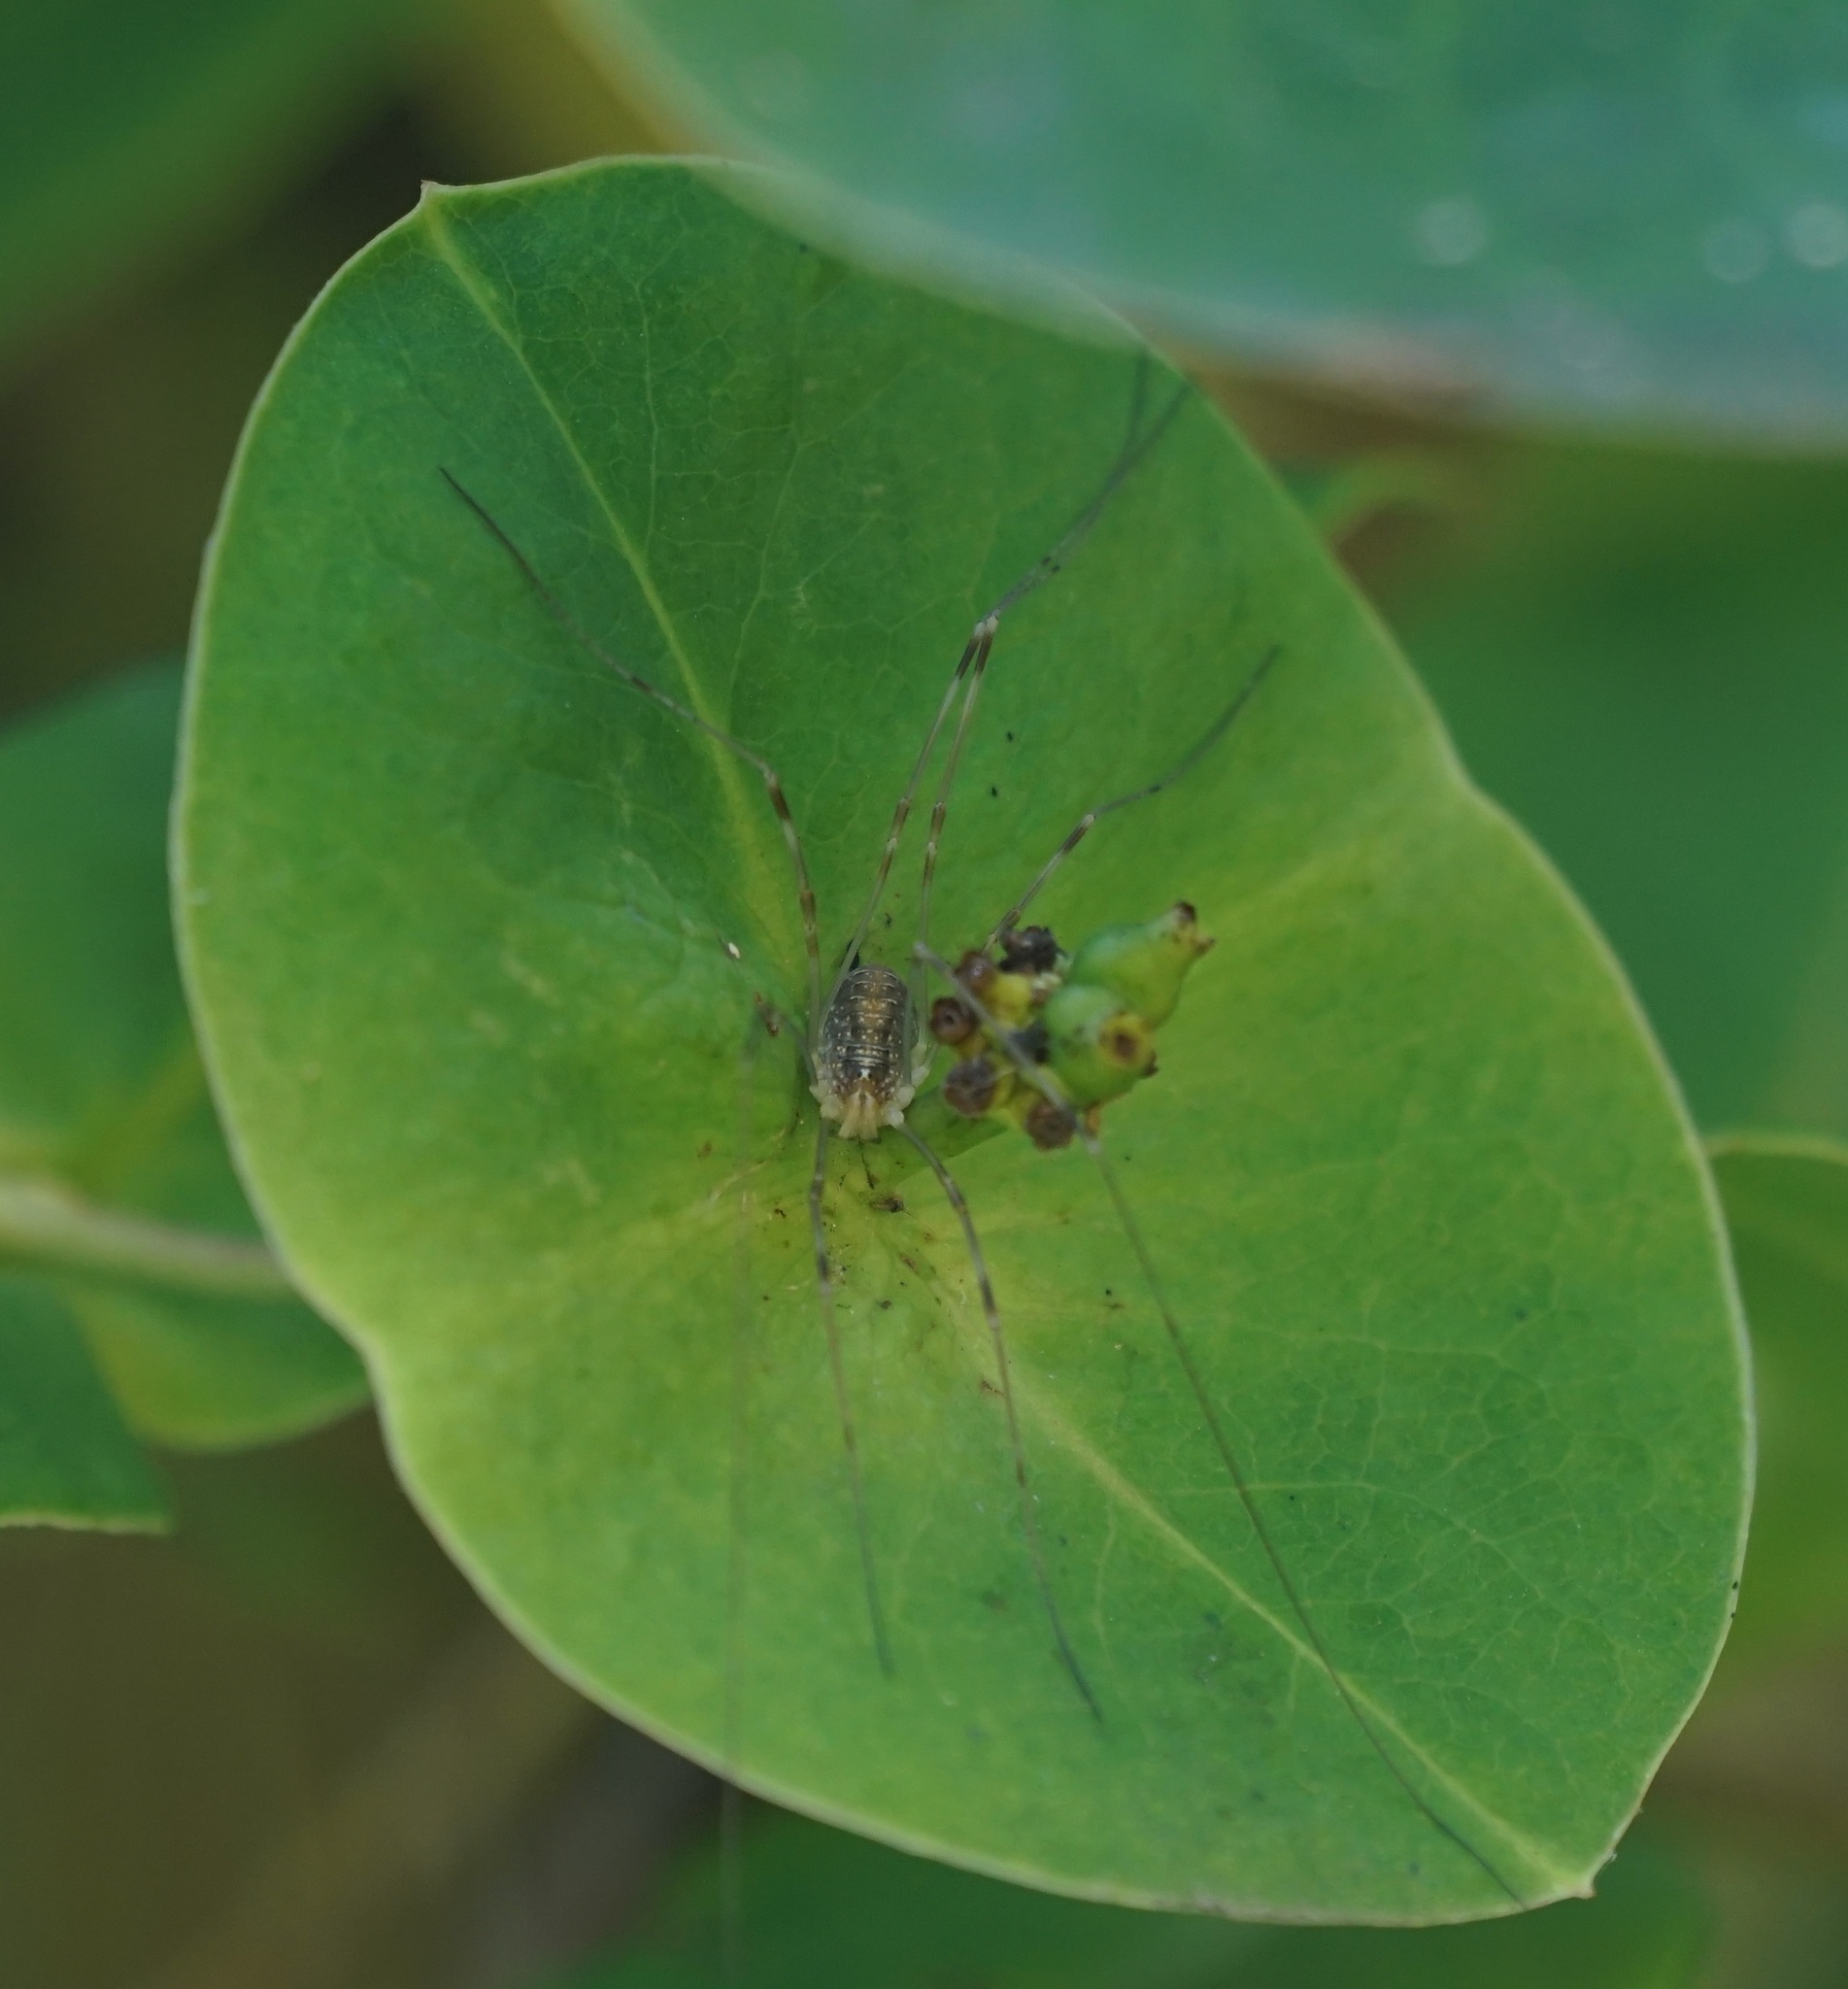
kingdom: Animalia
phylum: Arthropoda
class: Arachnida
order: Opiliones
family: Phalangiidae
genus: Opilio
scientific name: Opilio canestrinii
